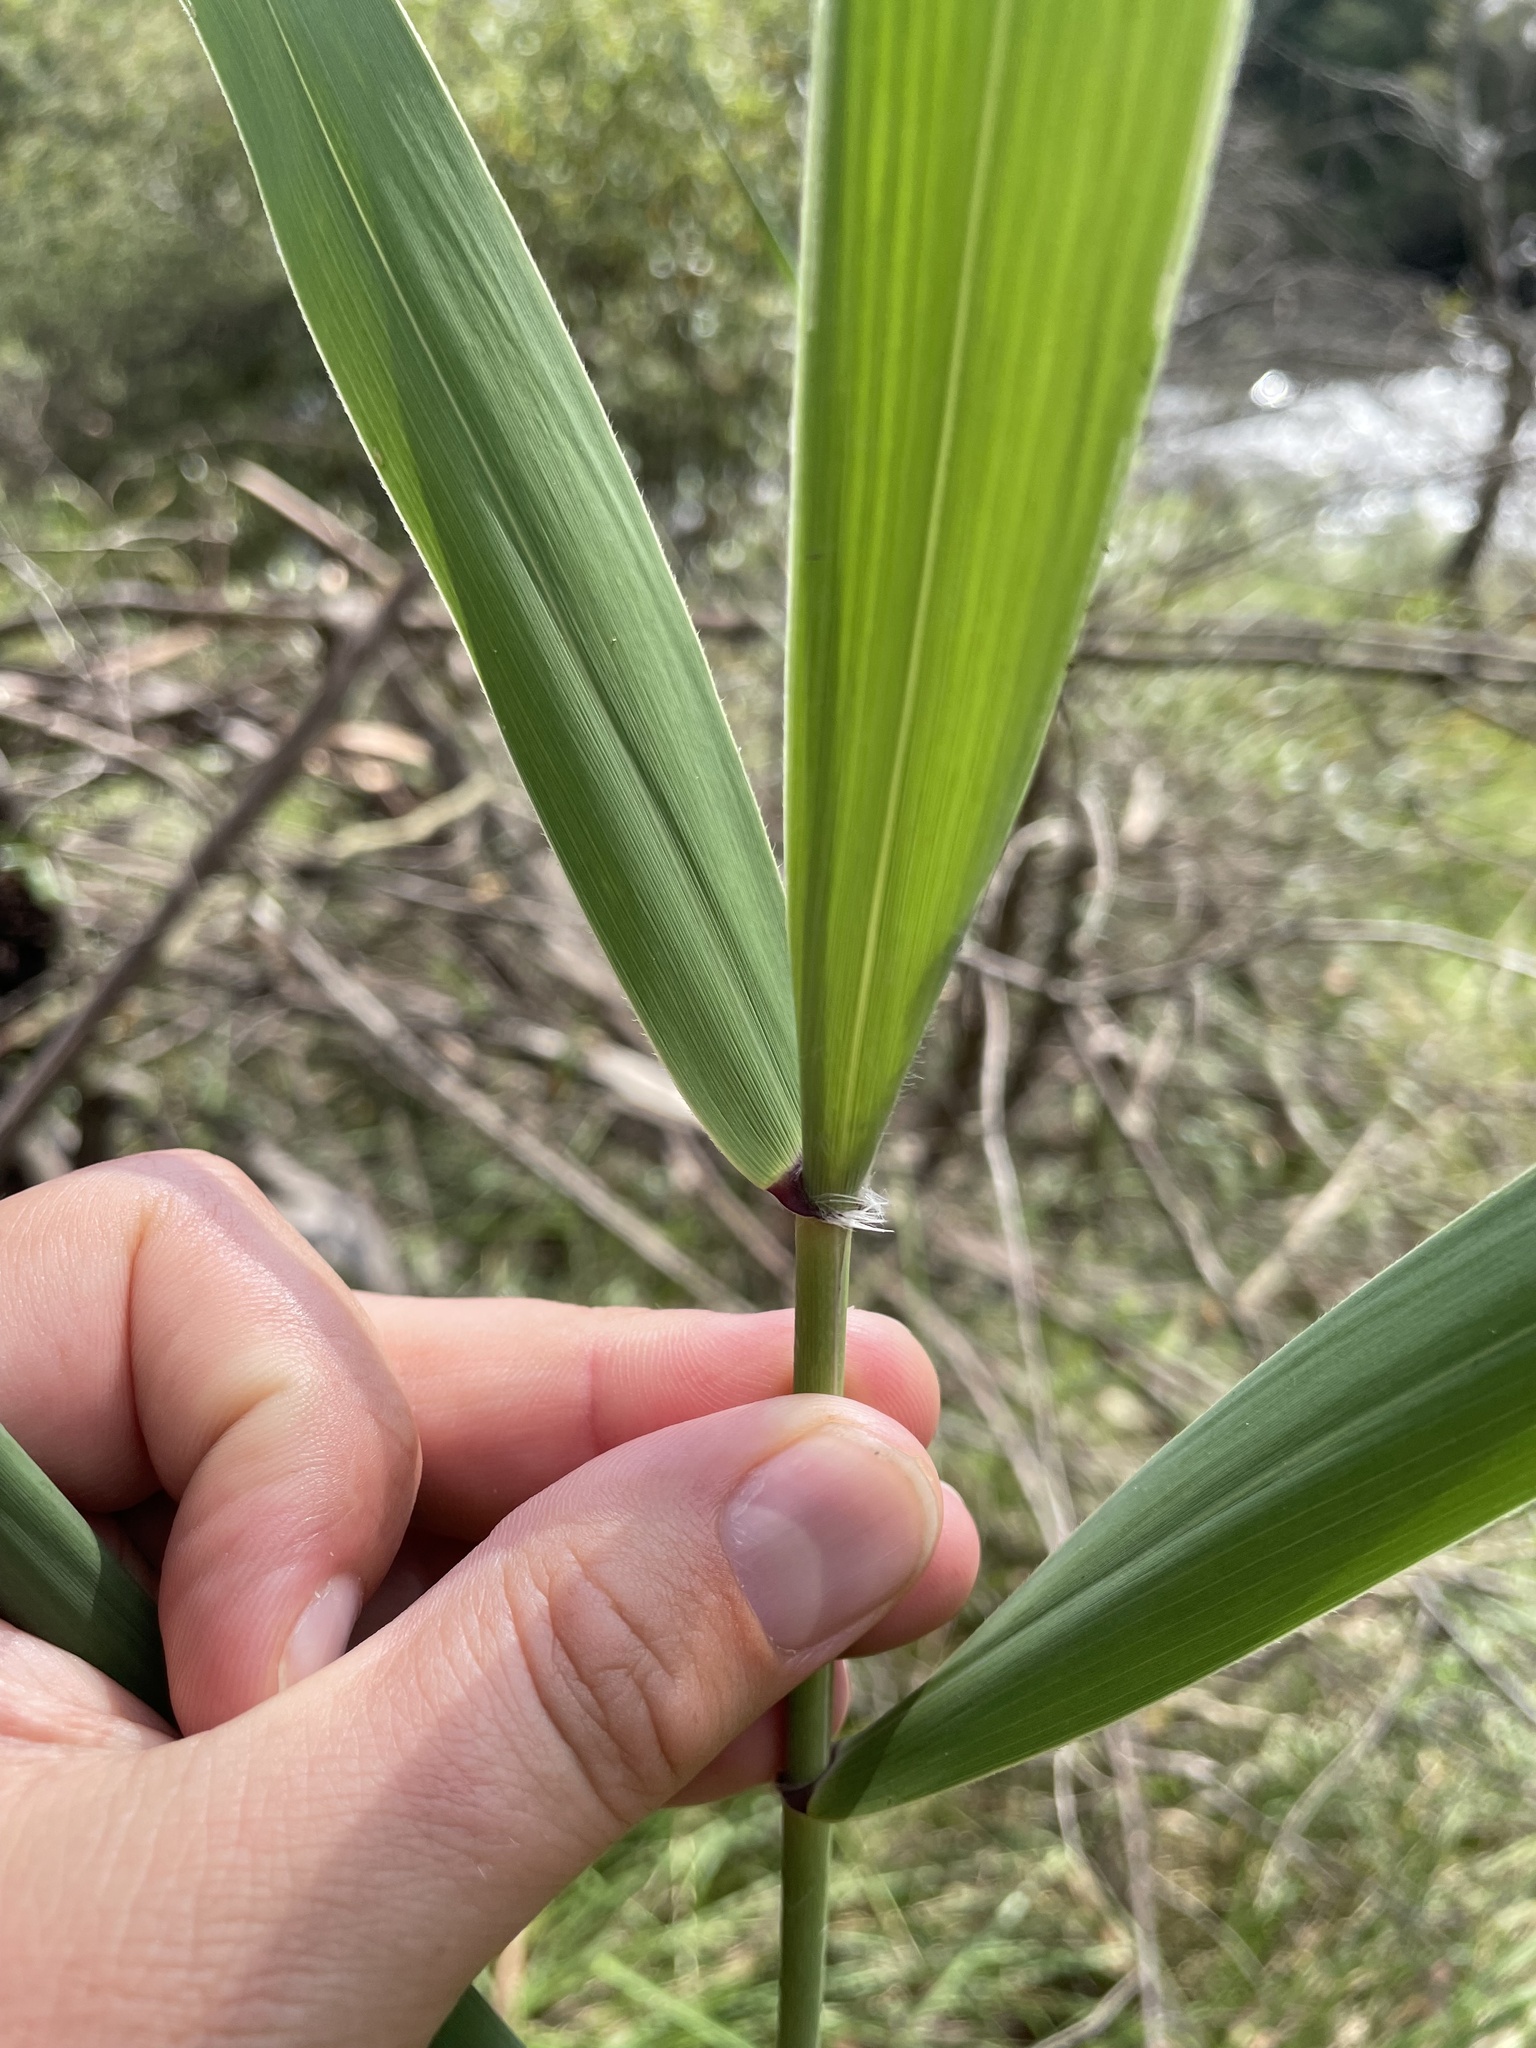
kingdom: Plantae
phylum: Tracheophyta
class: Liliopsida
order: Poales
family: Poaceae
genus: Phragmites
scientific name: Phragmites australis
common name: Common reed
